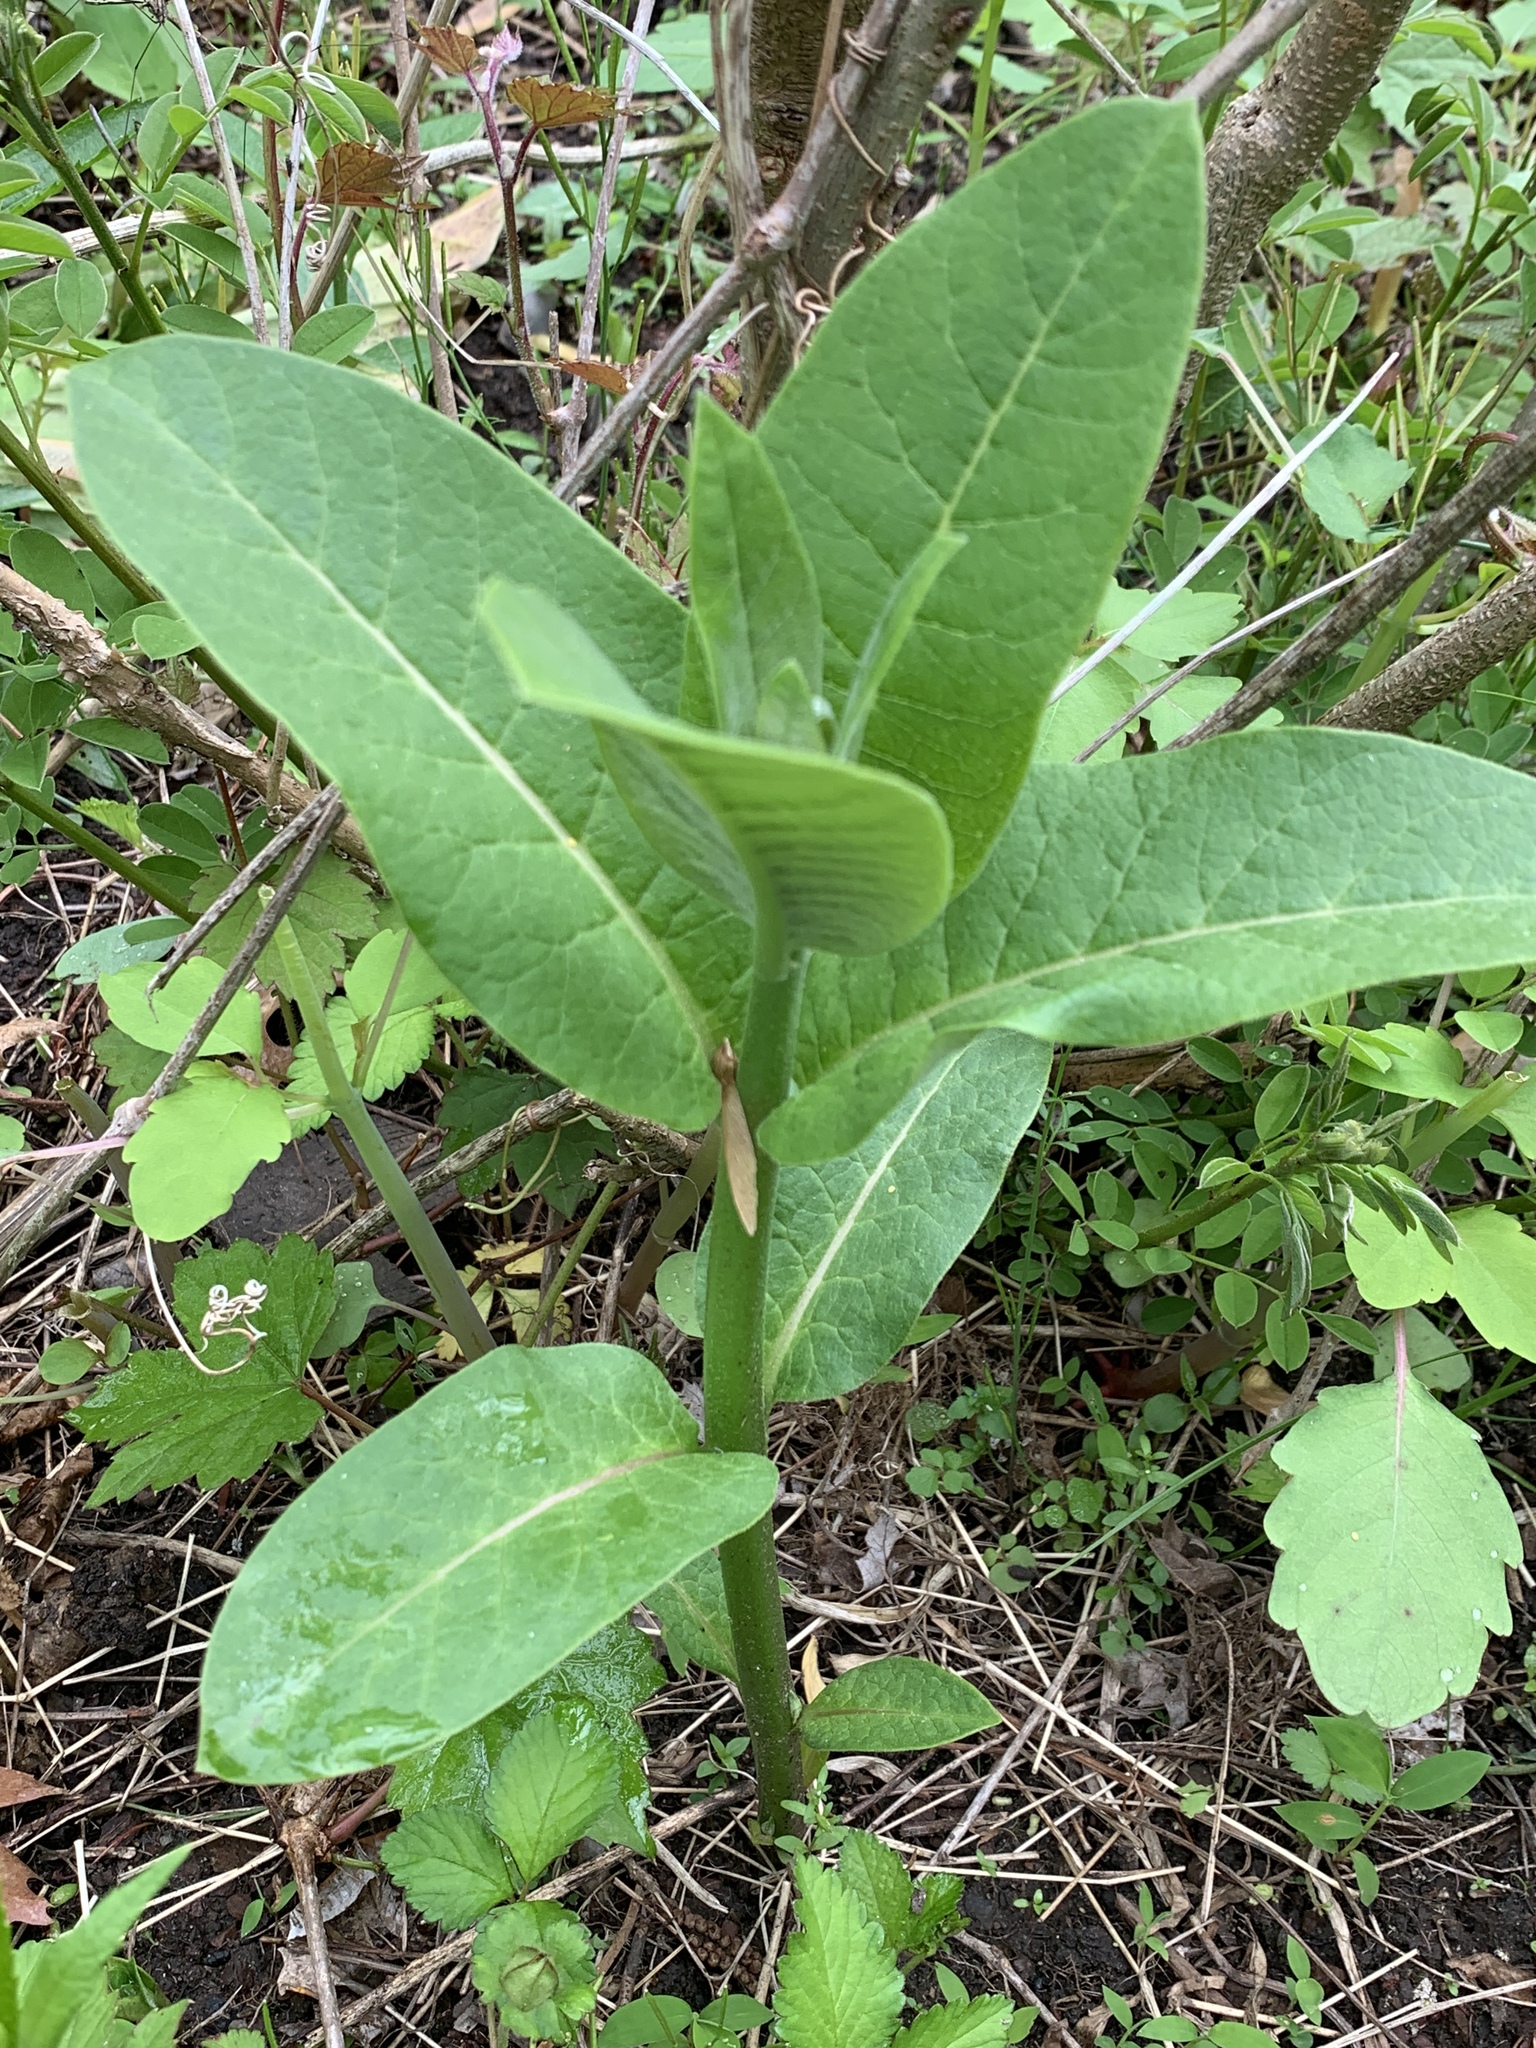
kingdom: Plantae
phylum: Tracheophyta
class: Magnoliopsida
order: Gentianales
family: Apocynaceae
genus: Asclepias
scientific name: Asclepias syriaca
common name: Common milkweed
